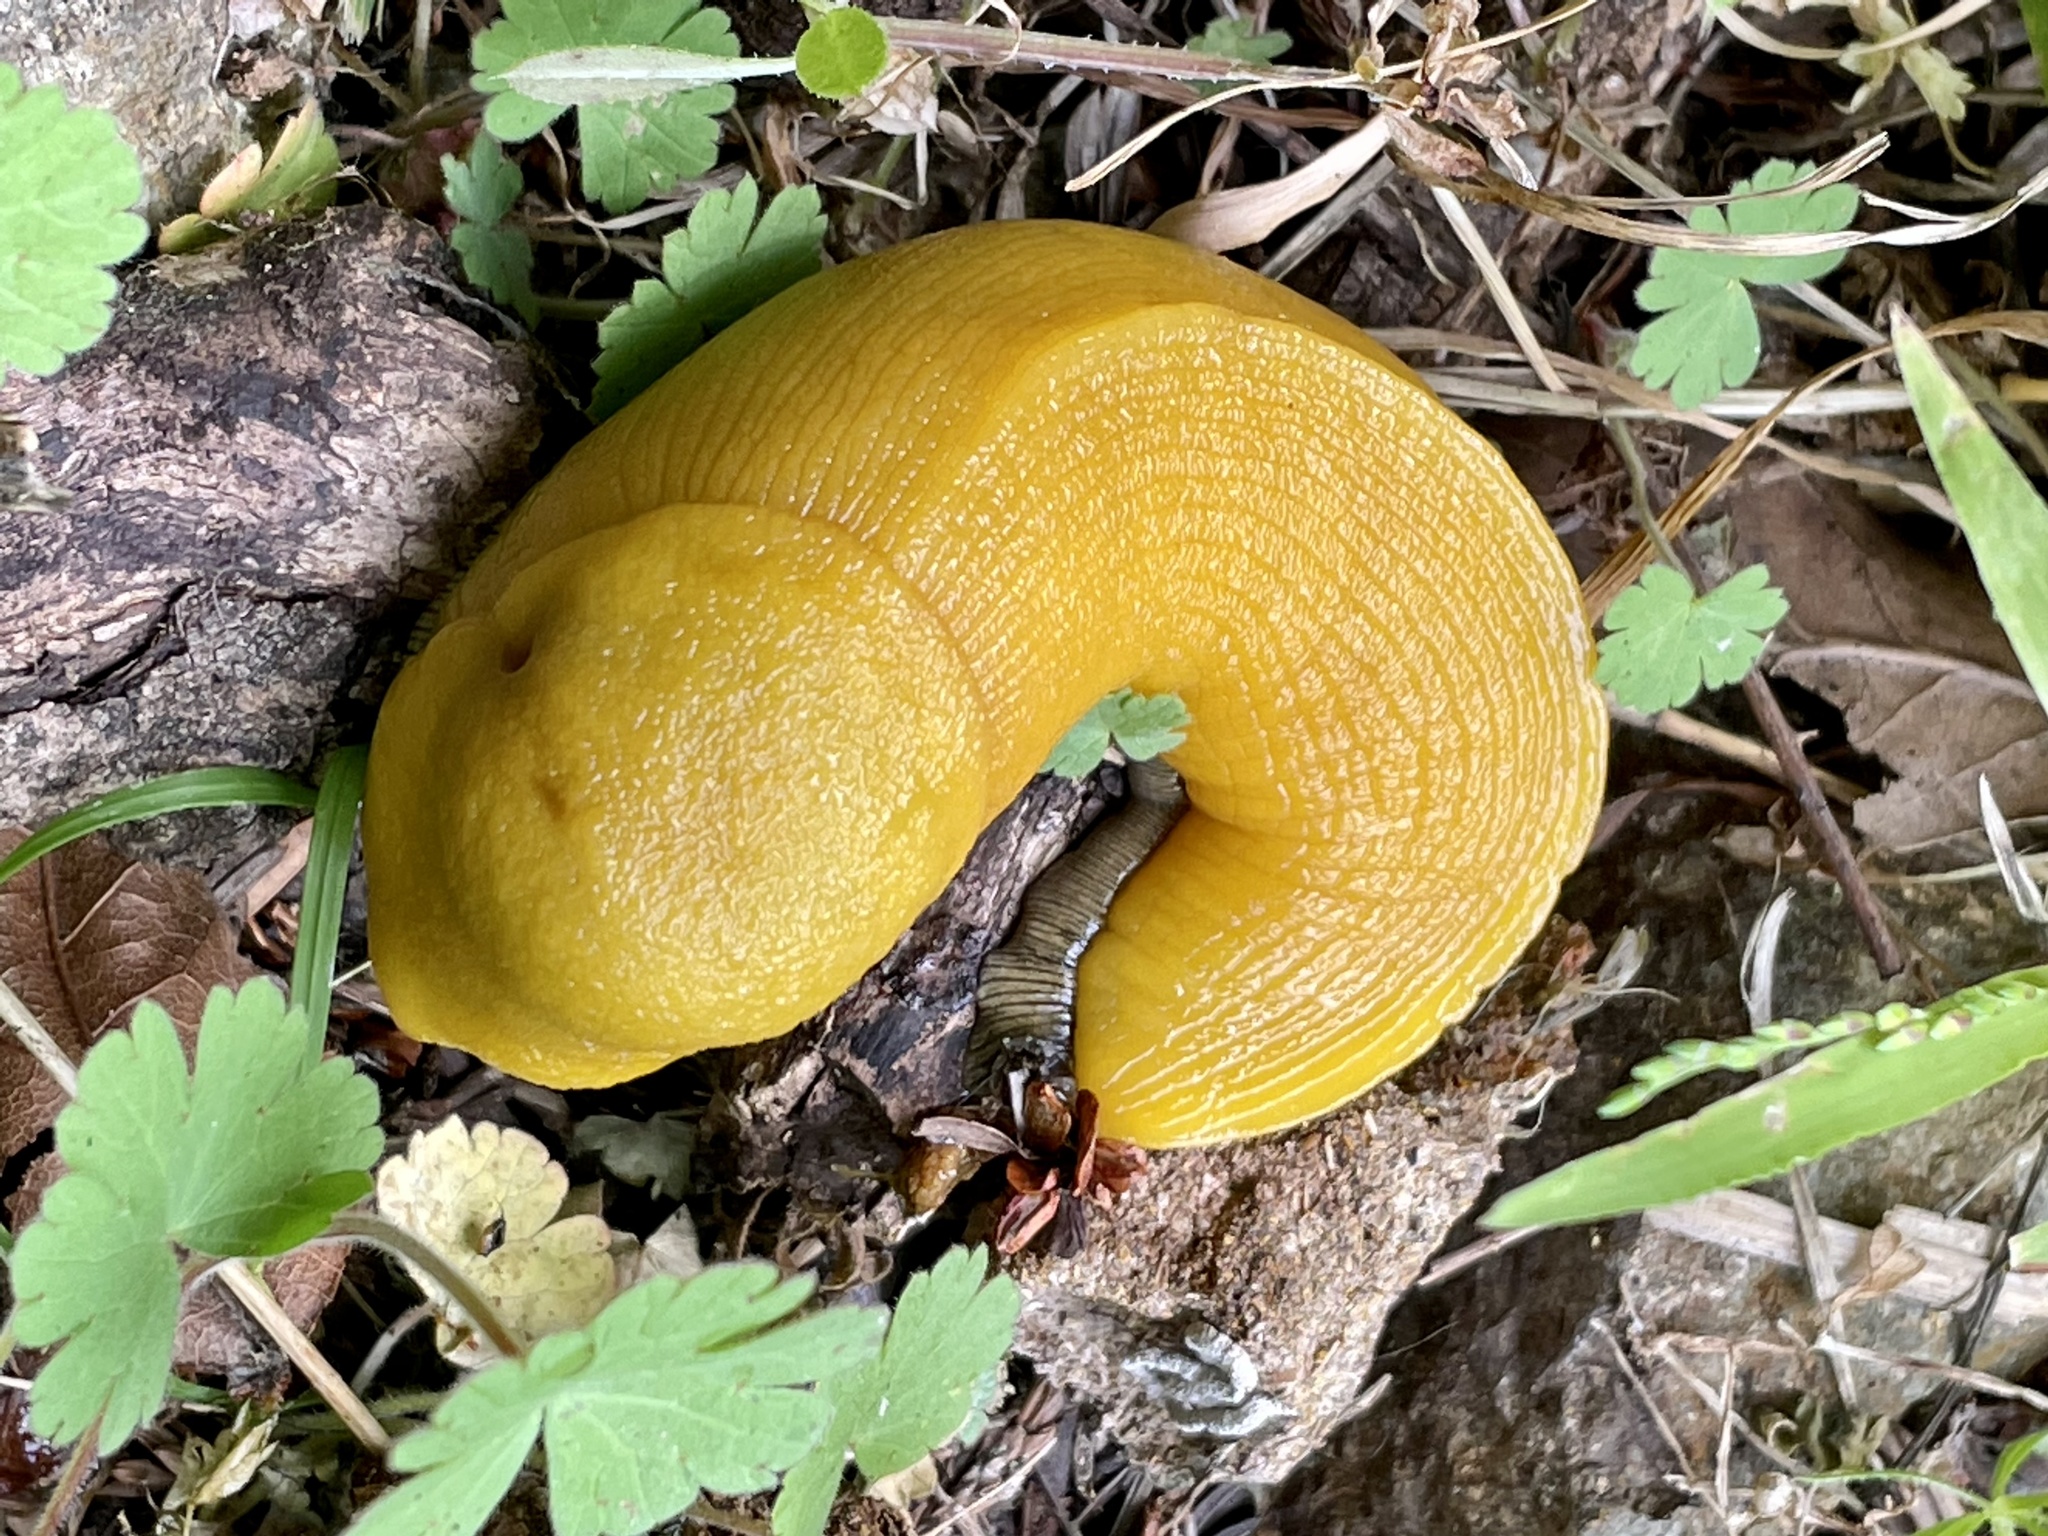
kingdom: Animalia
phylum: Mollusca
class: Gastropoda
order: Stylommatophora
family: Ariolimacidae
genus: Ariolimax
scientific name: Ariolimax stramineus
